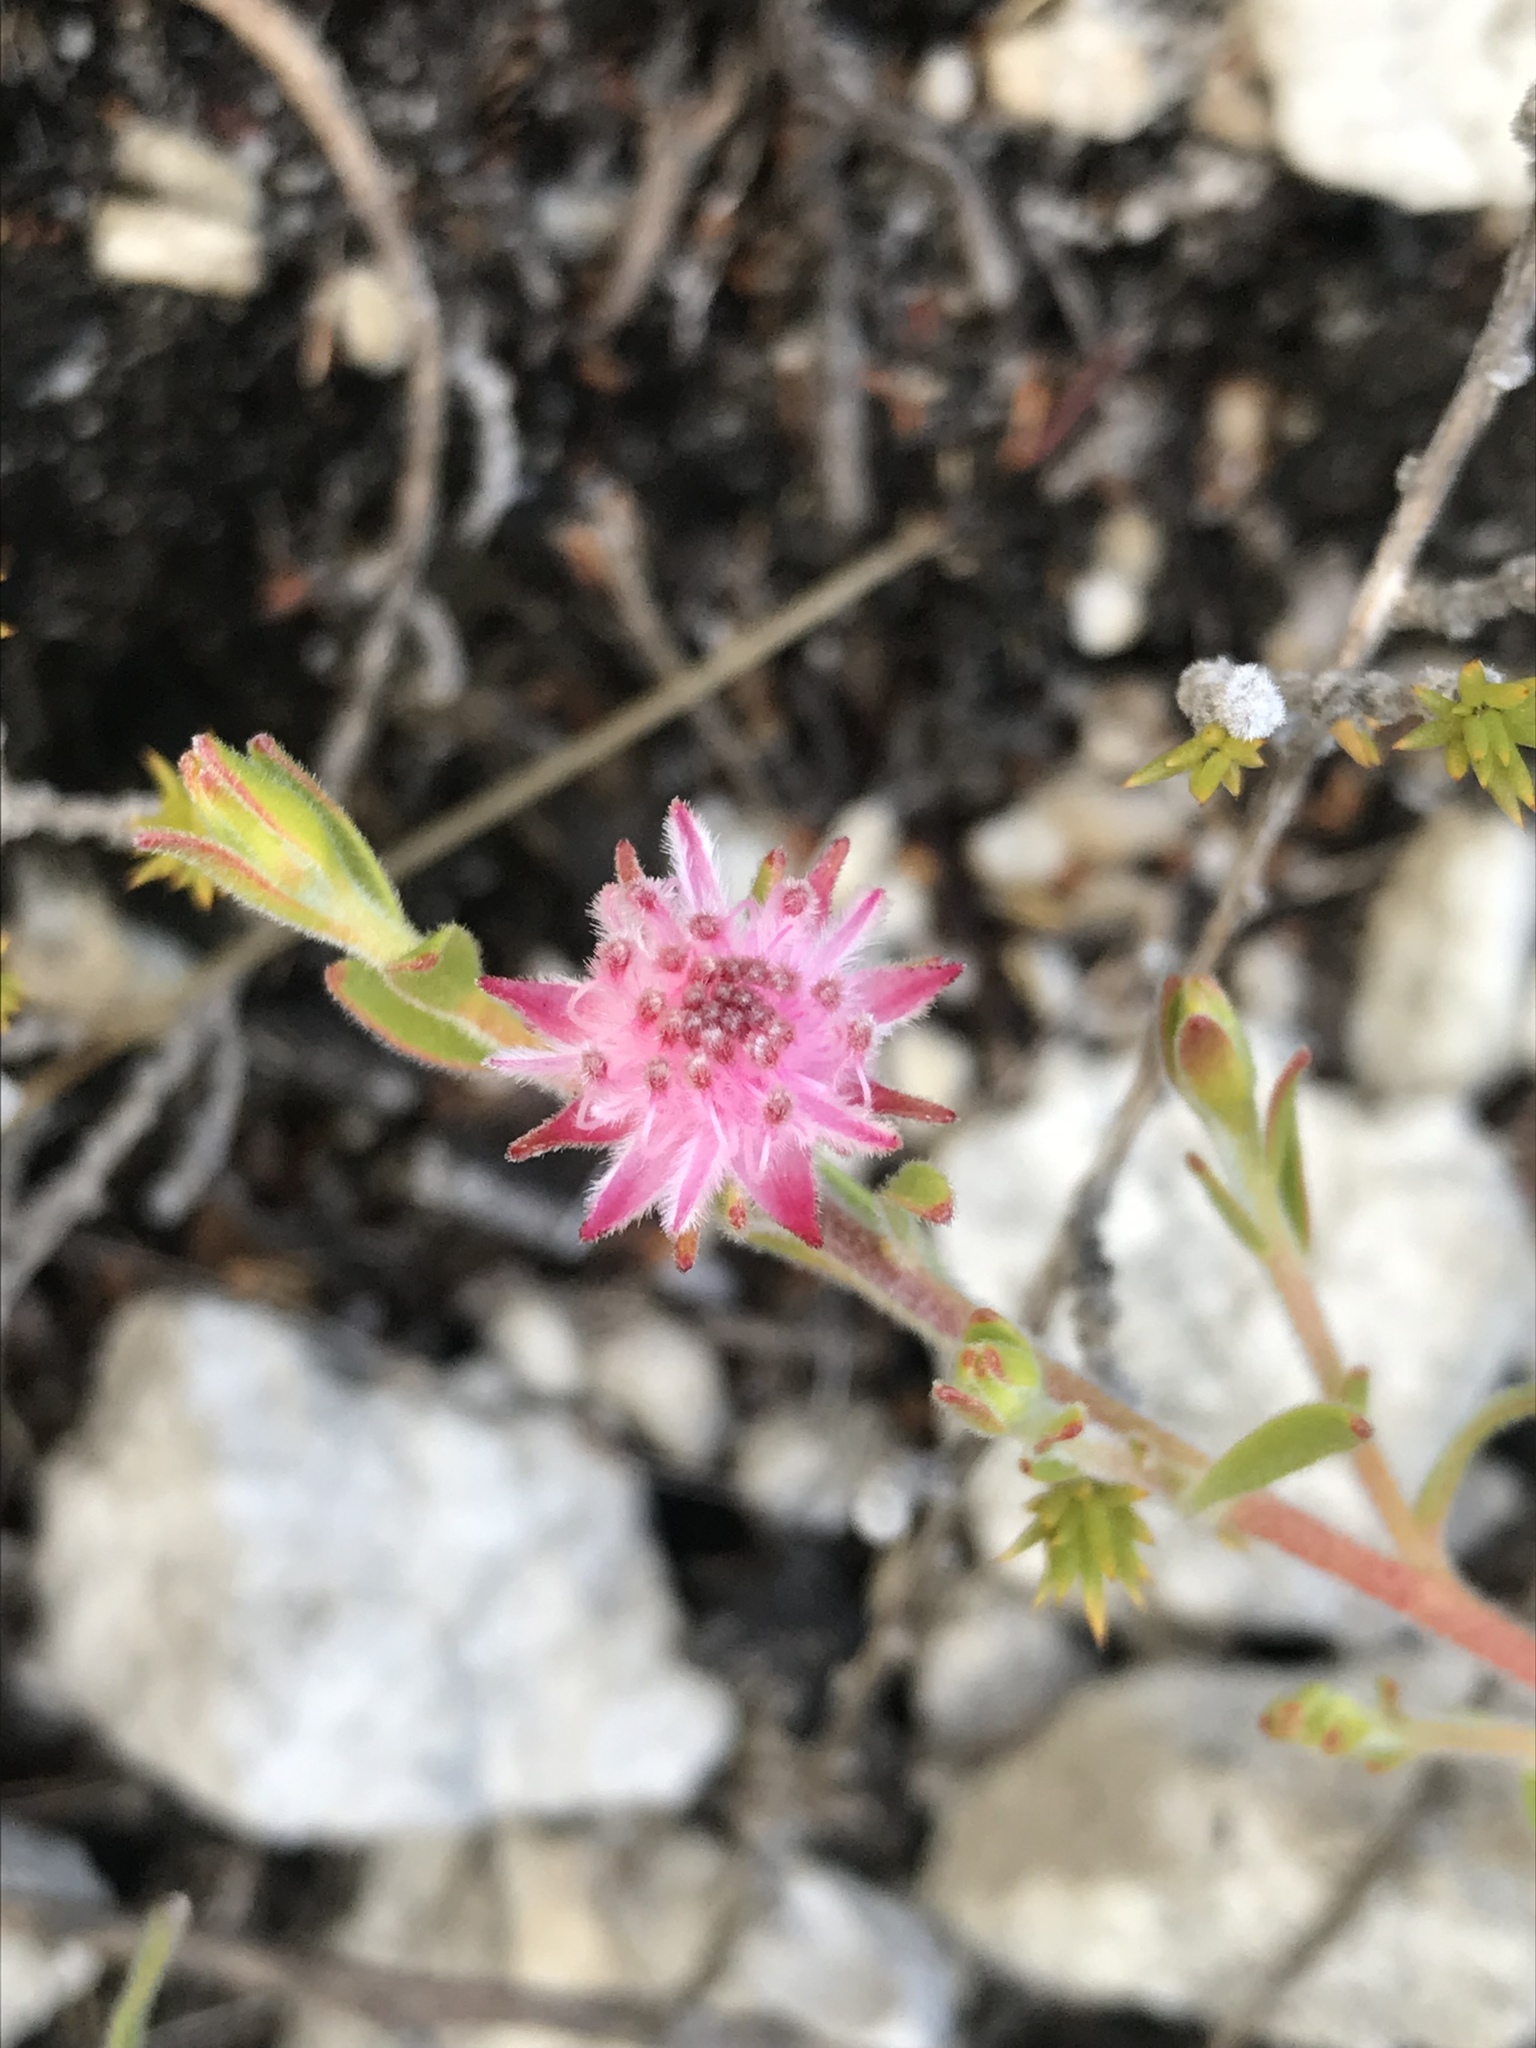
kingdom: Plantae
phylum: Tracheophyta
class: Magnoliopsida
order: Proteales
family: Proteaceae
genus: Diastella
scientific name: Diastella divaricata
